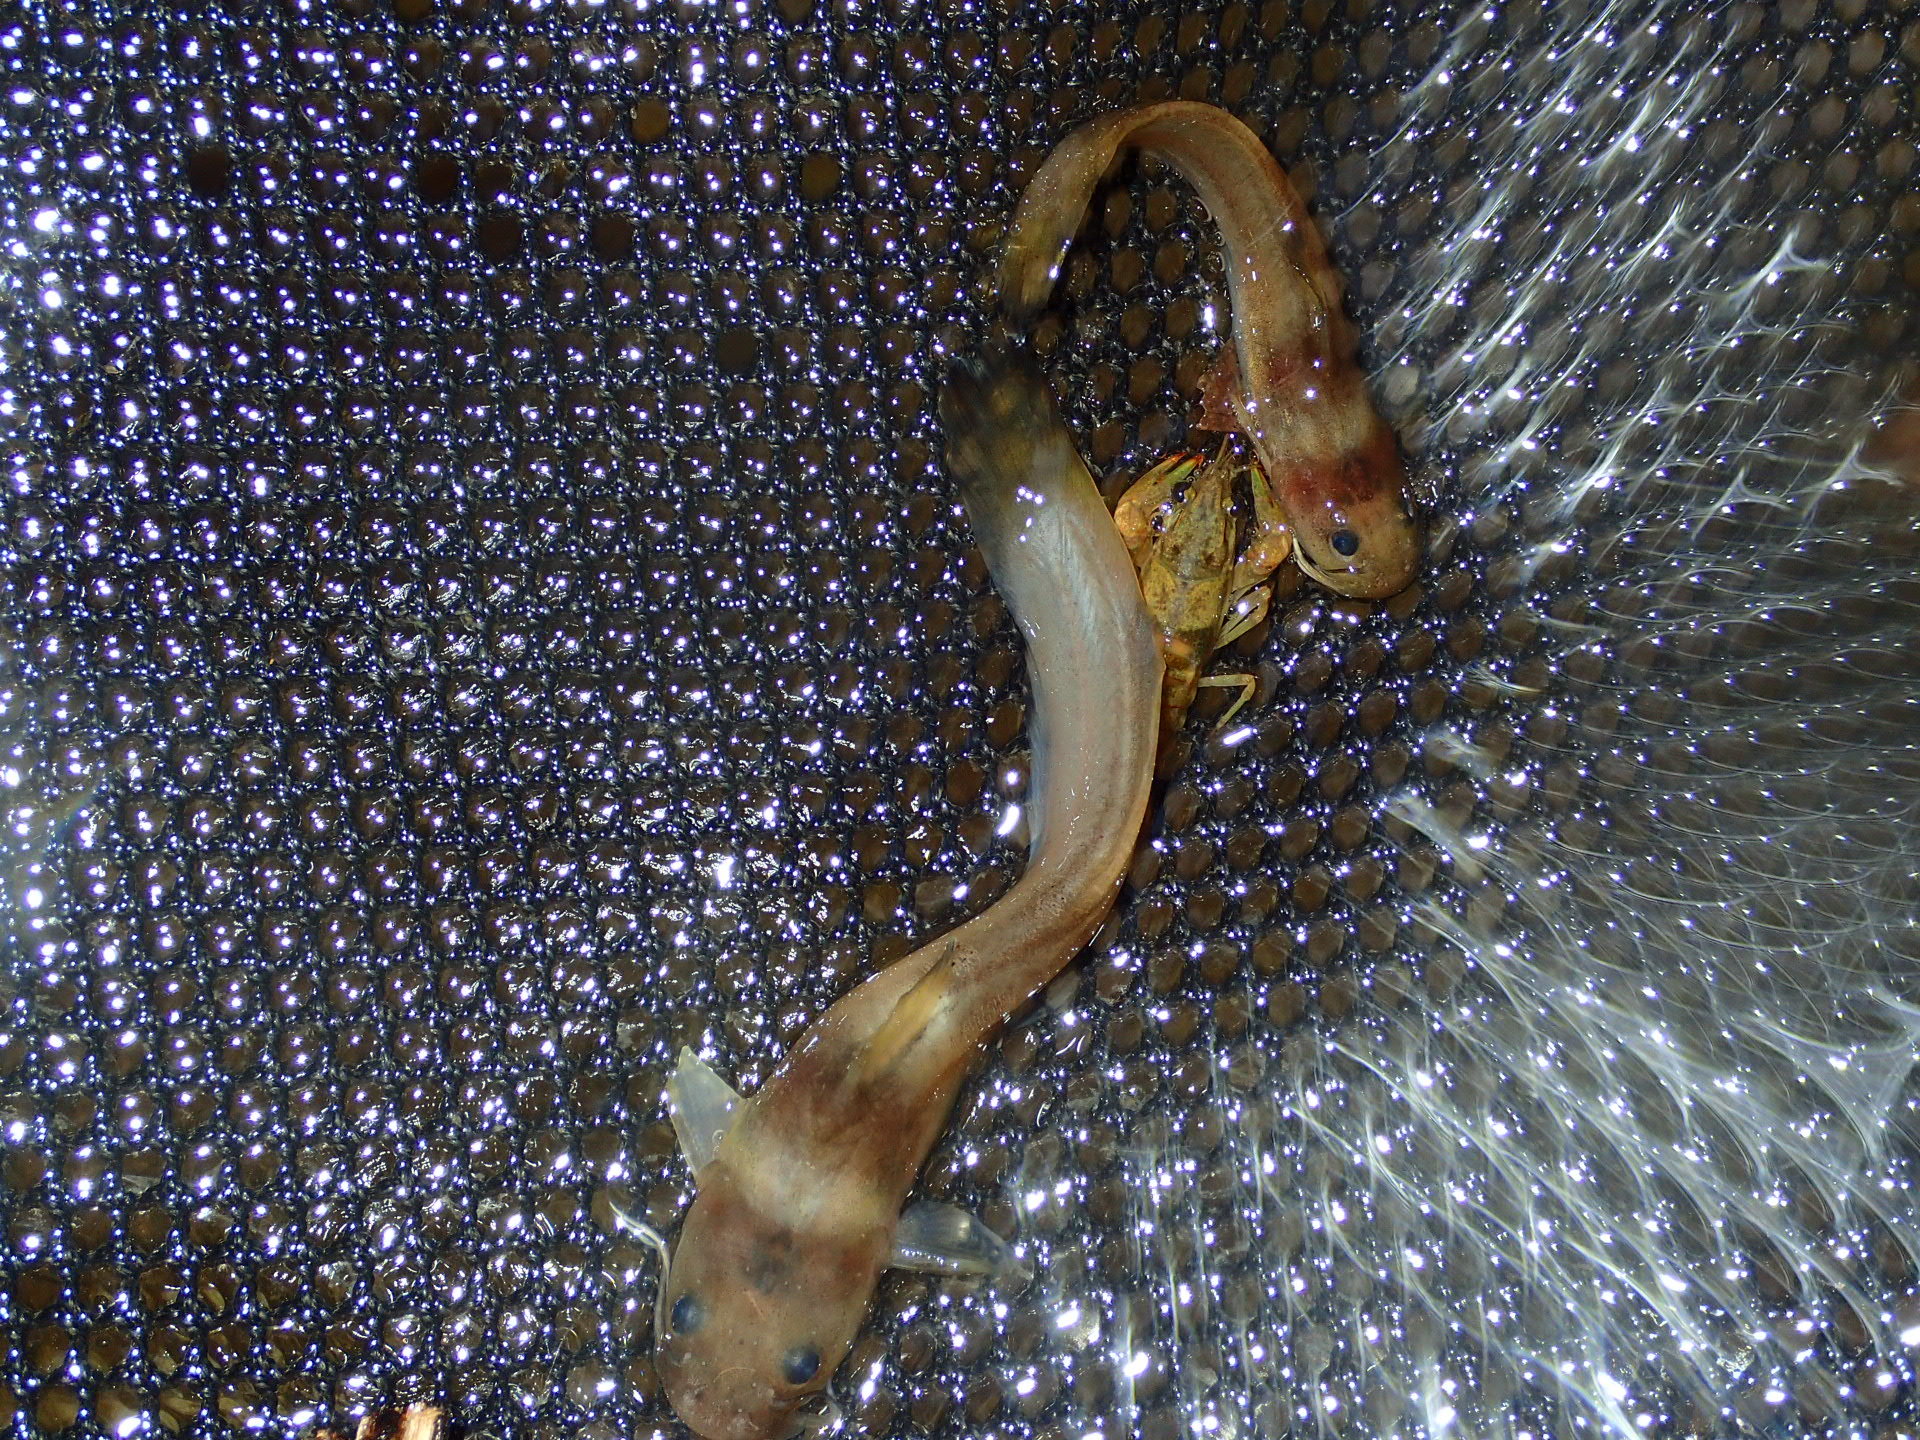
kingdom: Animalia
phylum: Chordata
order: Siluriformes
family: Ictaluridae
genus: Noturus
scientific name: Noturus exilis
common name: Slender madtom
